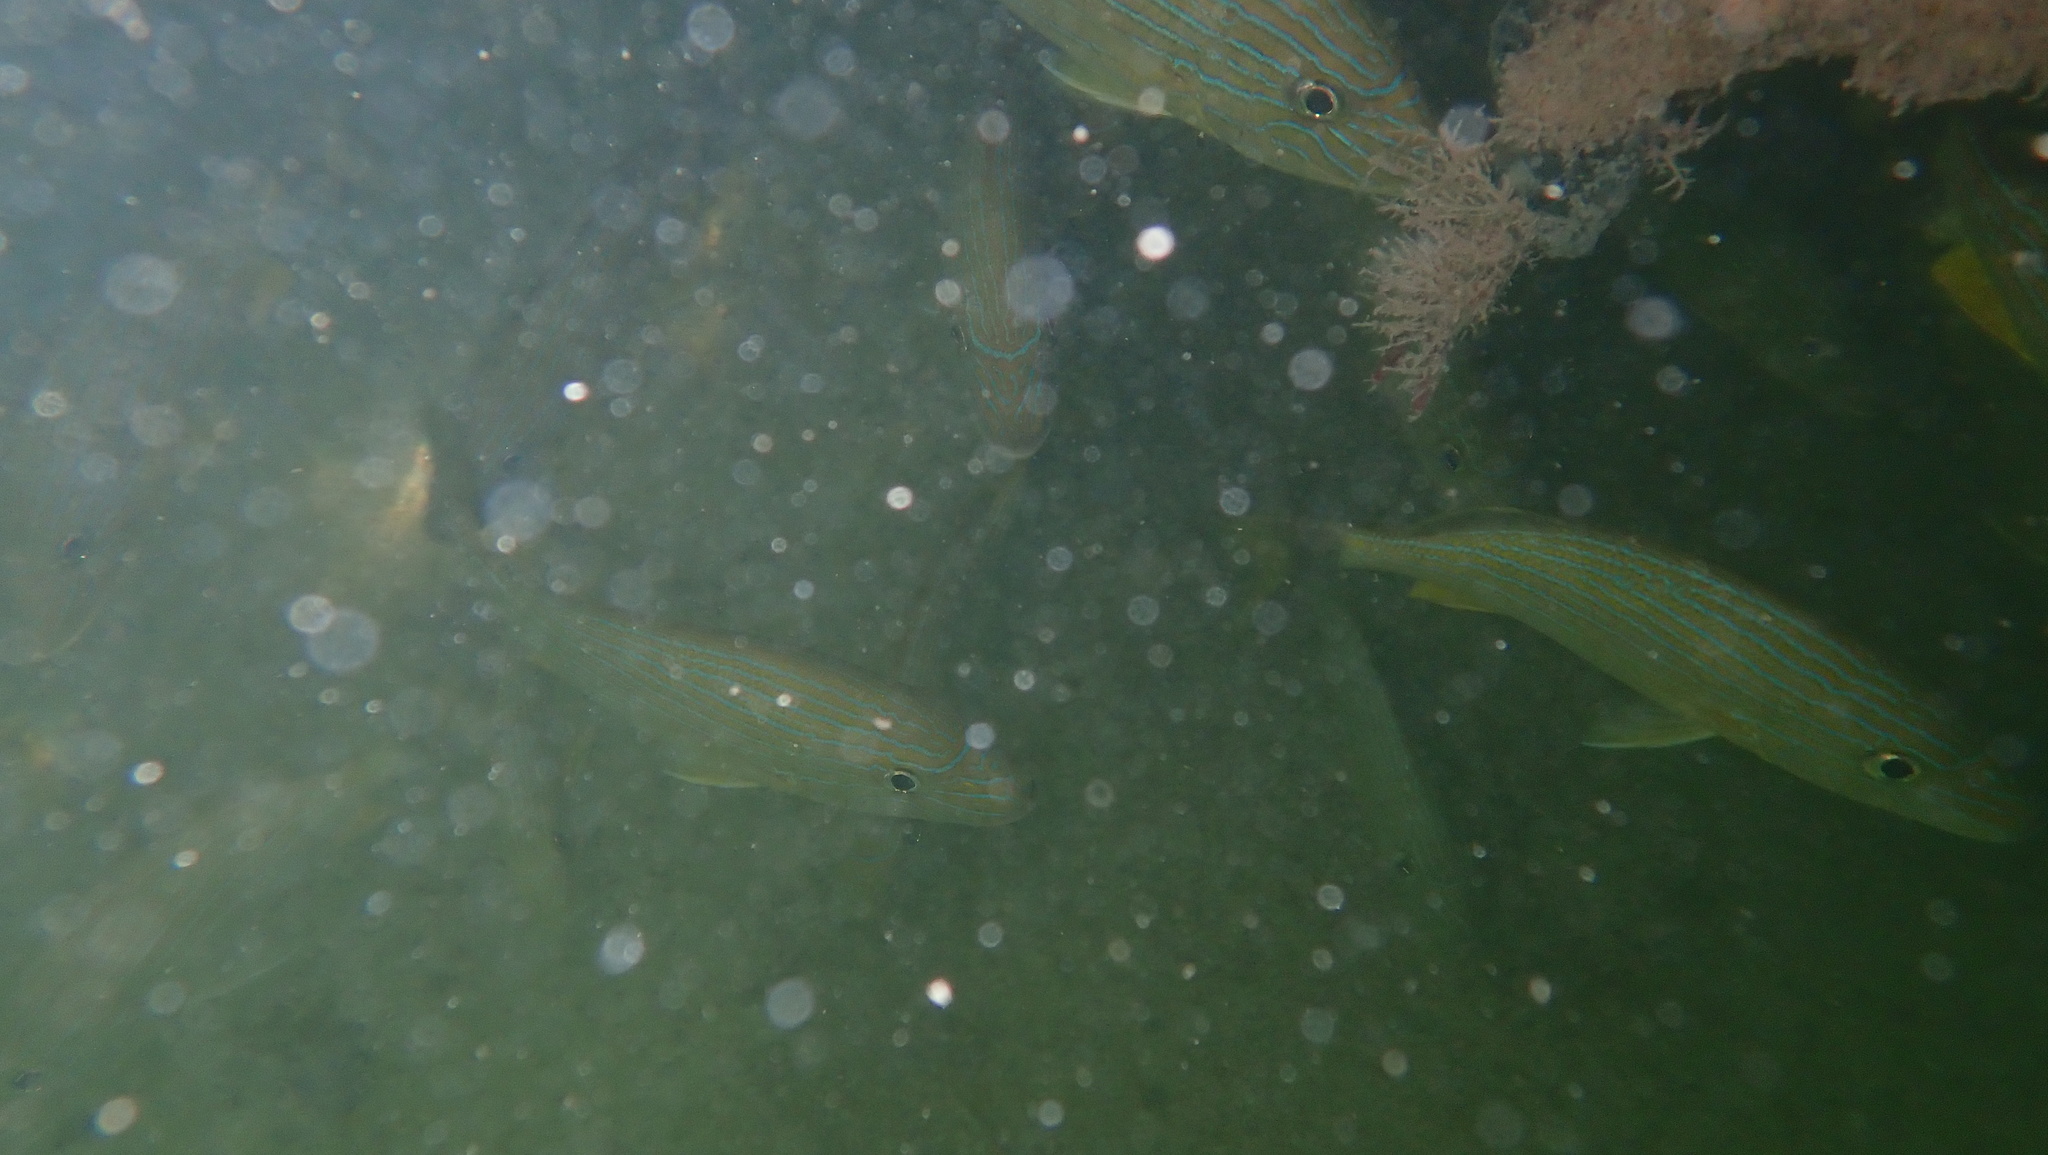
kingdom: Animalia
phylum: Chordata
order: Perciformes
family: Haemulidae
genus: Haemulon
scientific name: Haemulon sciurus
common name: Bluestriped grunt
